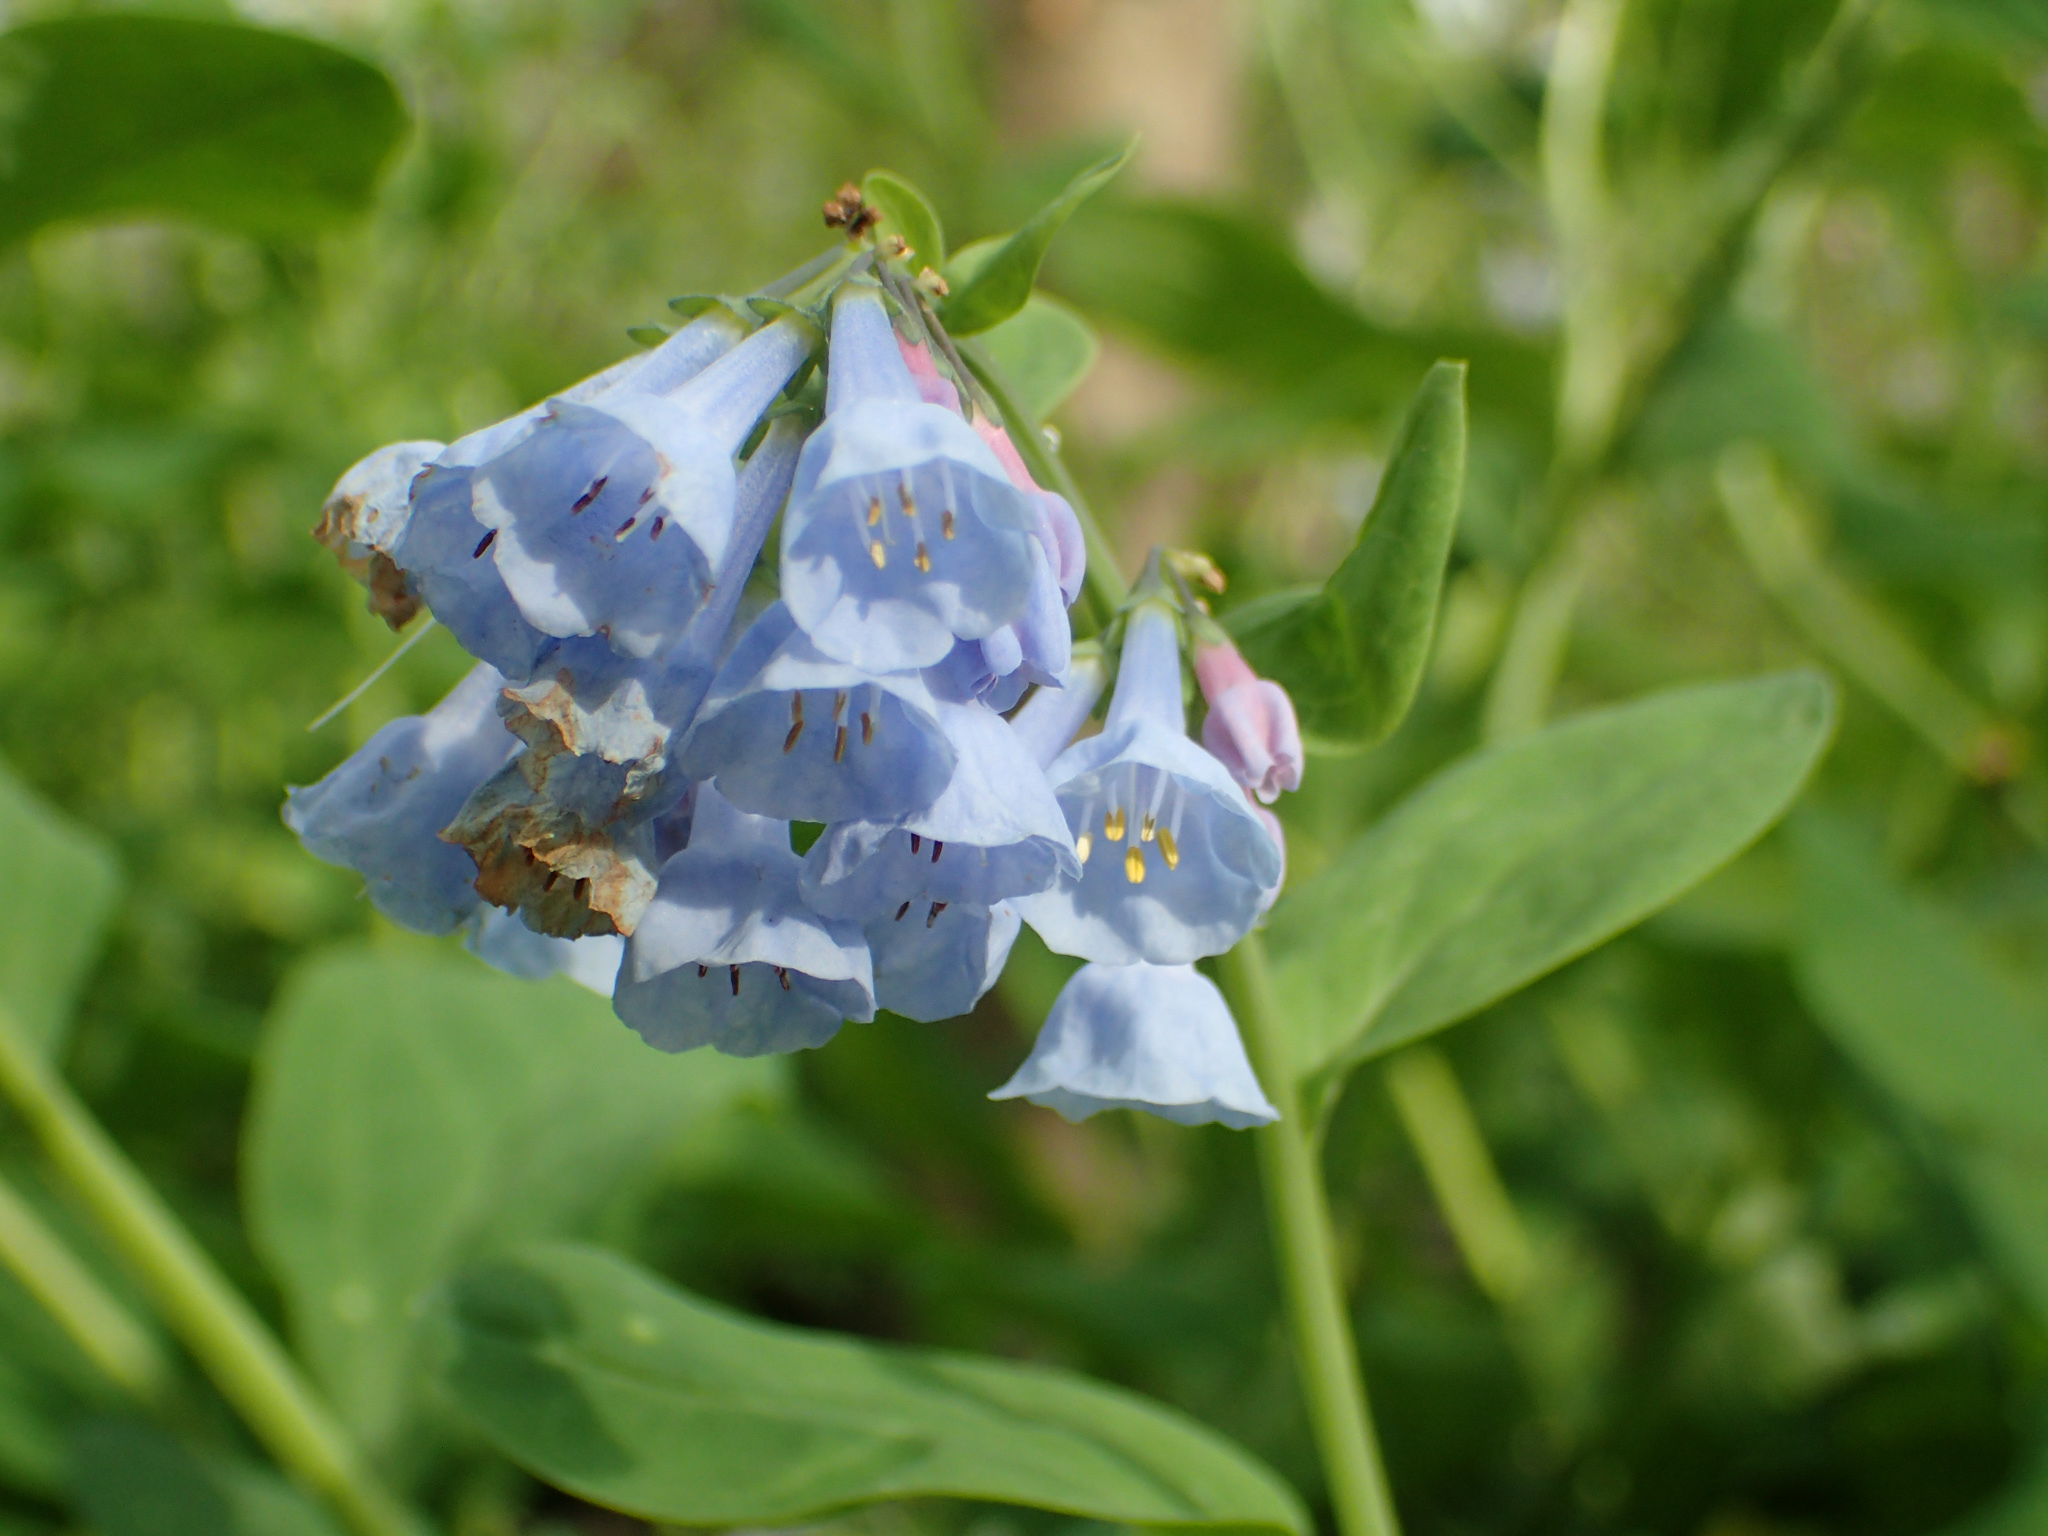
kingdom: Plantae
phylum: Tracheophyta
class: Magnoliopsida
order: Boraginales
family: Boraginaceae
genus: Mertensia
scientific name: Mertensia virginica
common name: Virginia bluebells
